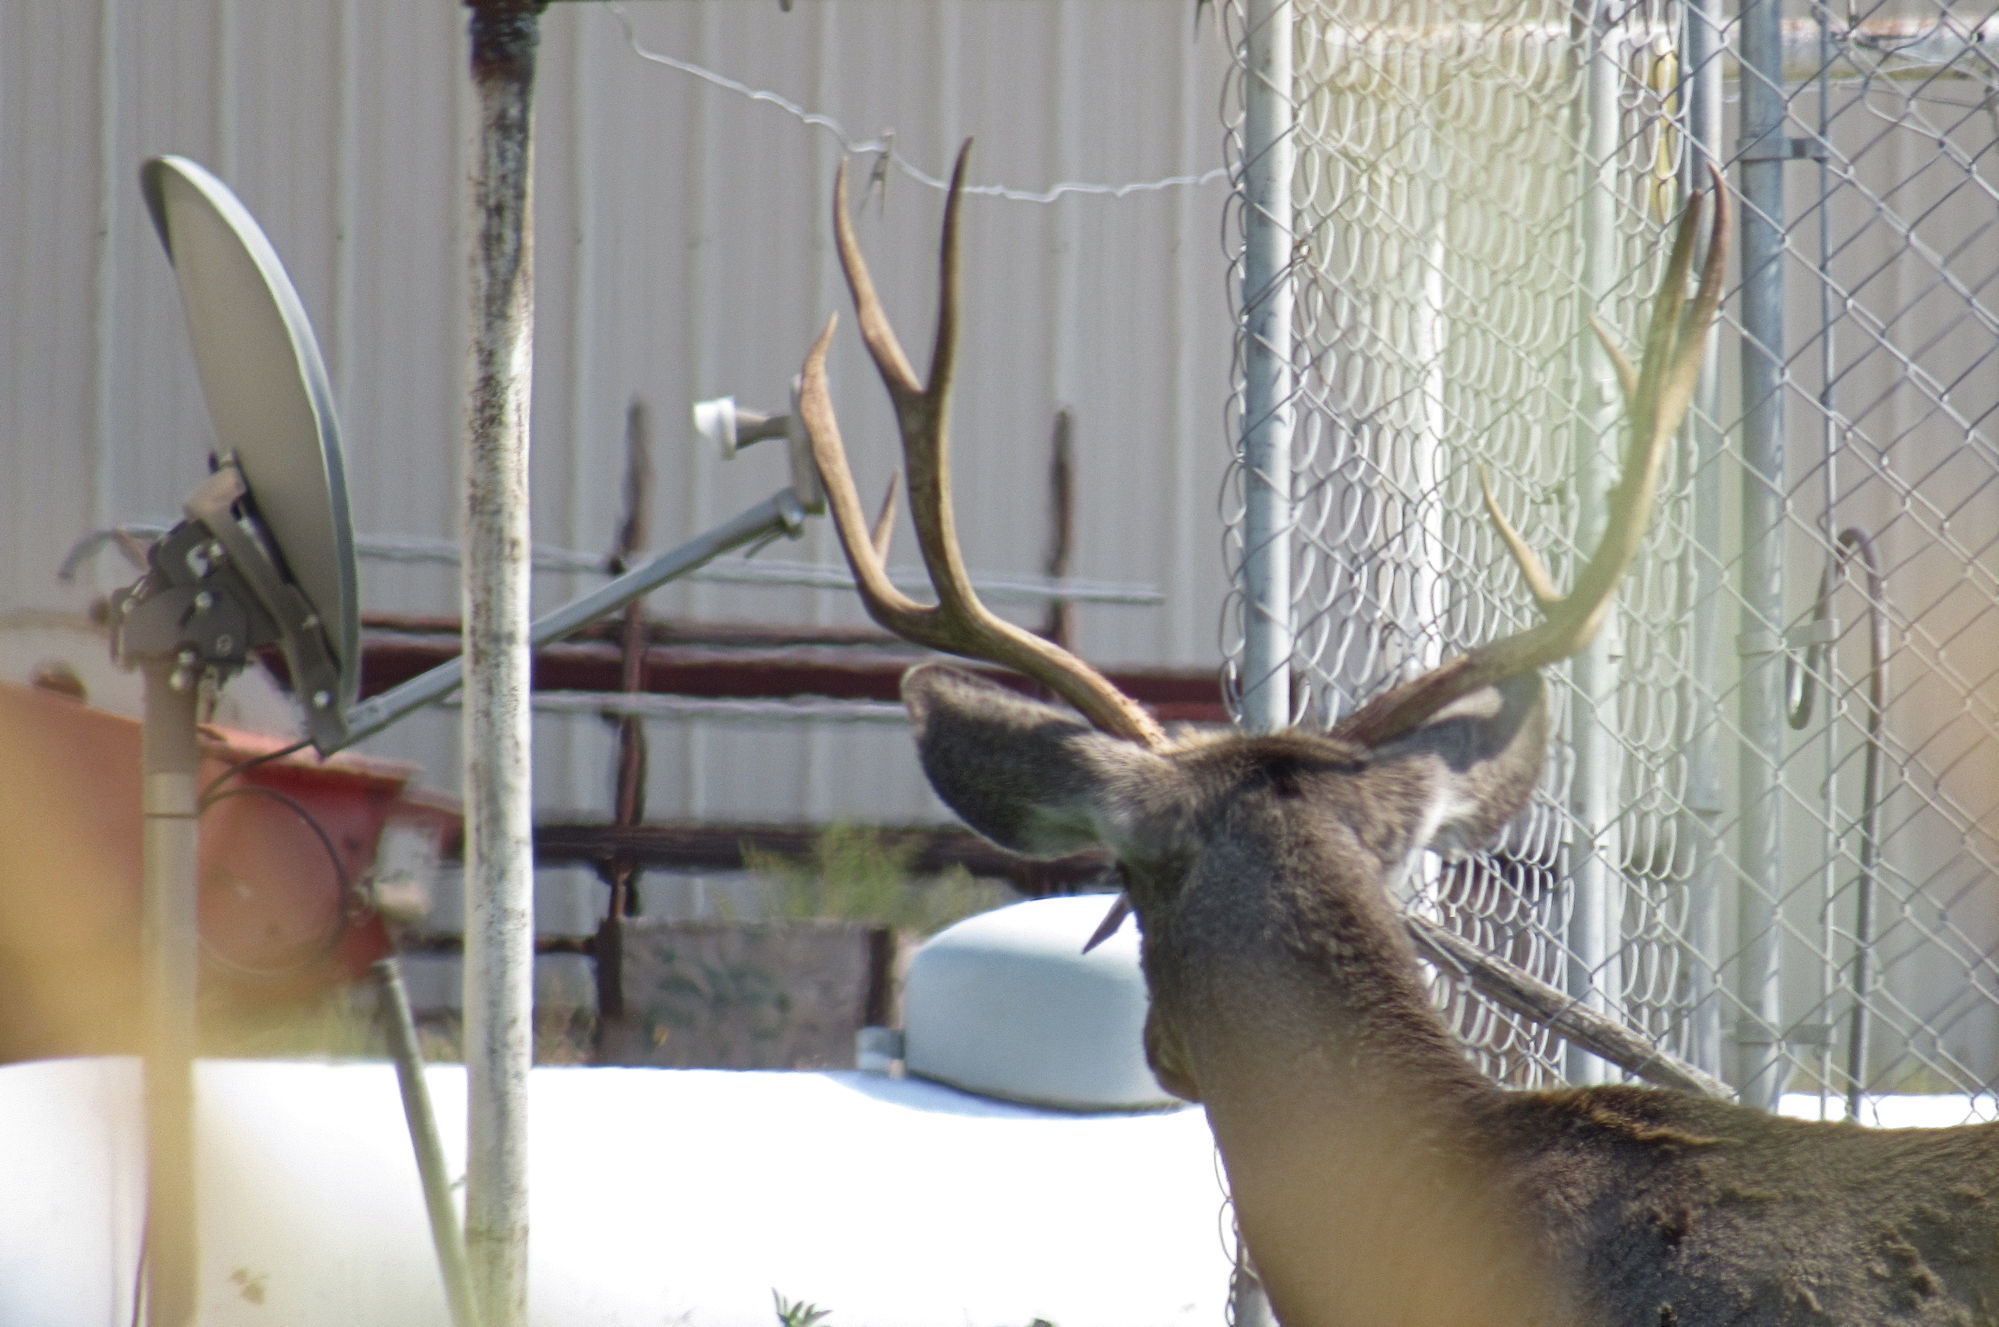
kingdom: Animalia
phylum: Chordata
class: Mammalia
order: Artiodactyla
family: Cervidae
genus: Odocoileus
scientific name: Odocoileus hemionus
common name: Mule deer
